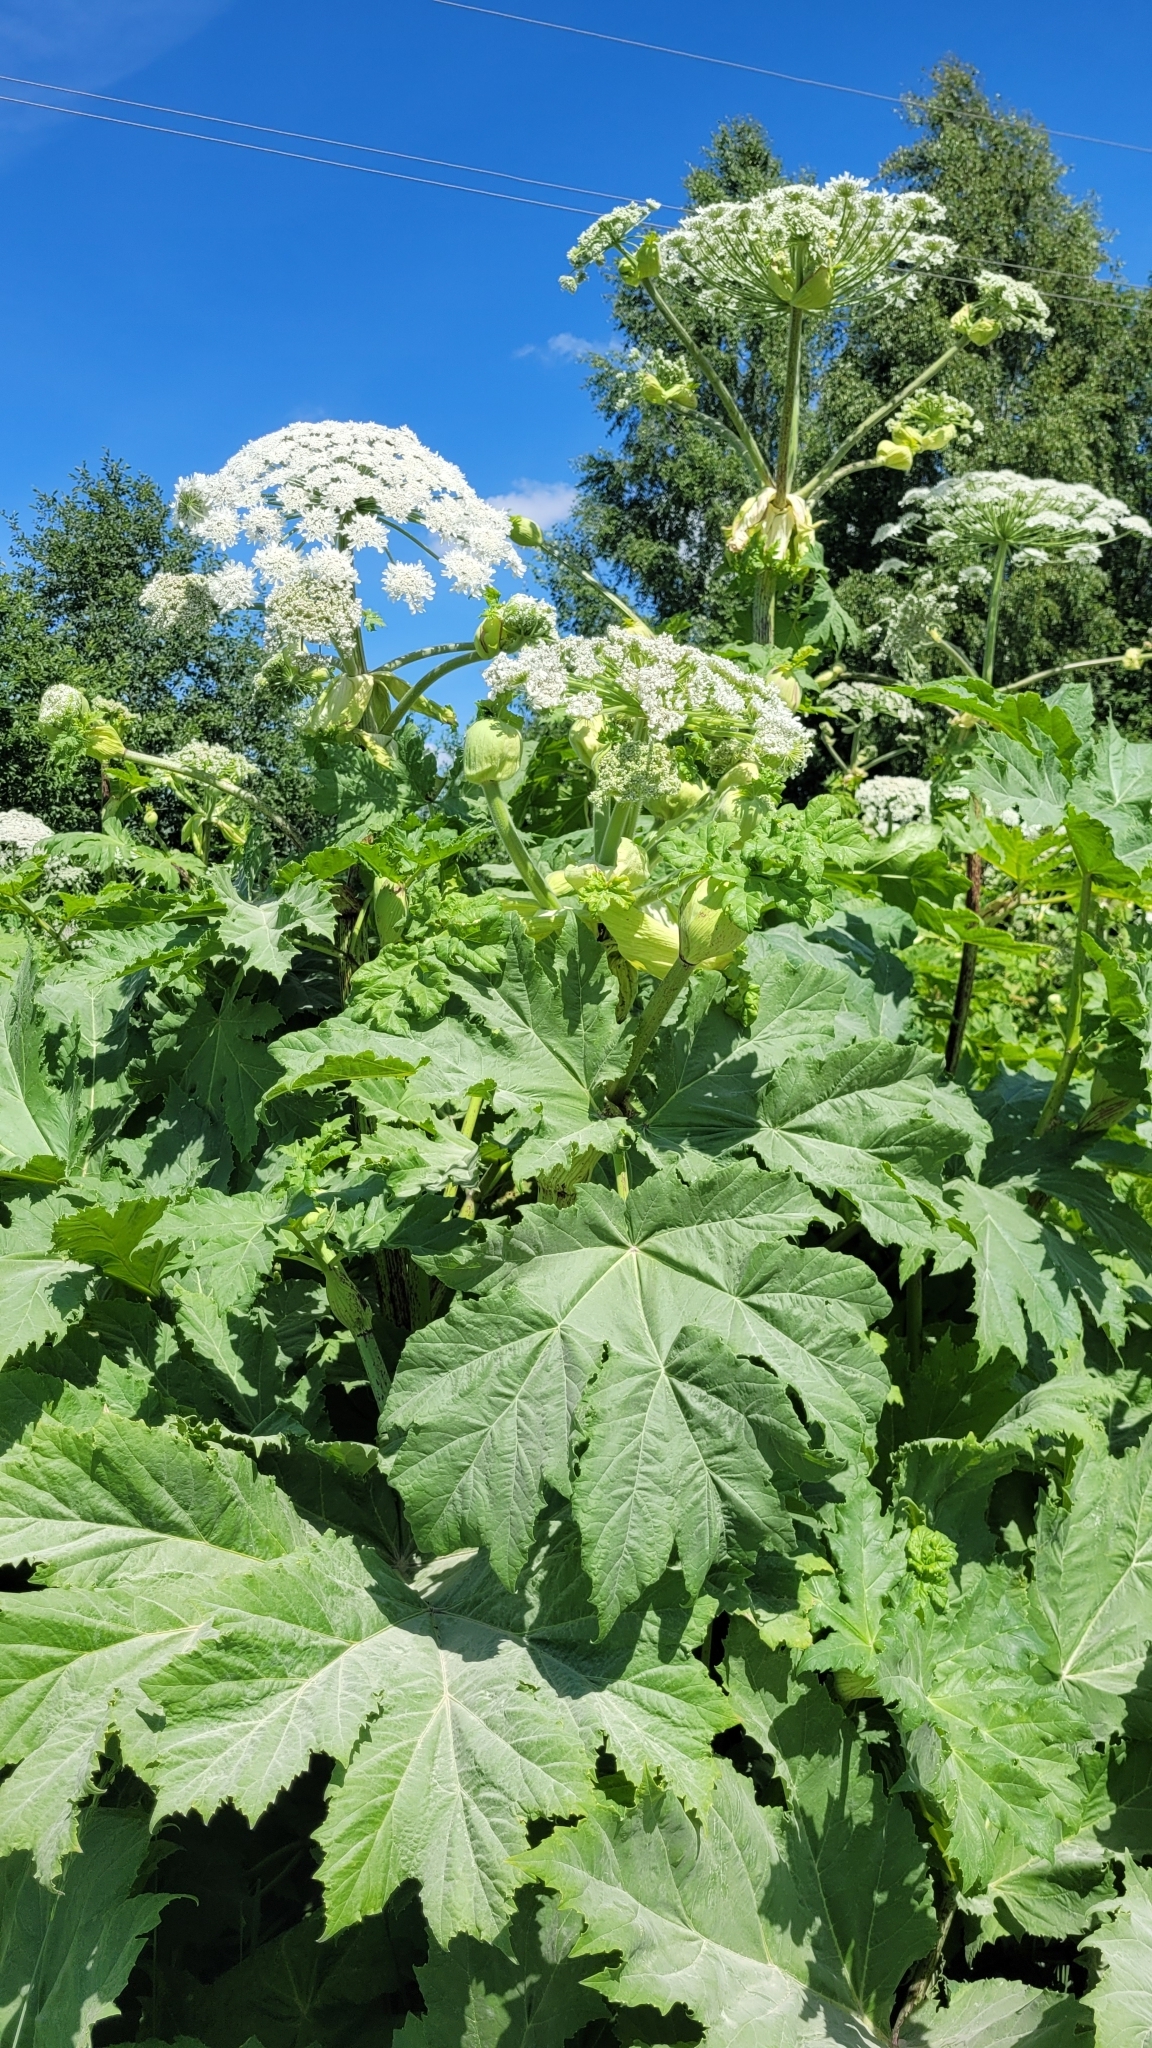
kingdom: Plantae
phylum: Tracheophyta
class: Magnoliopsida
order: Apiales
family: Apiaceae
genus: Heracleum
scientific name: Heracleum sosnowskyi
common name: Sosnowsky's hogweed
